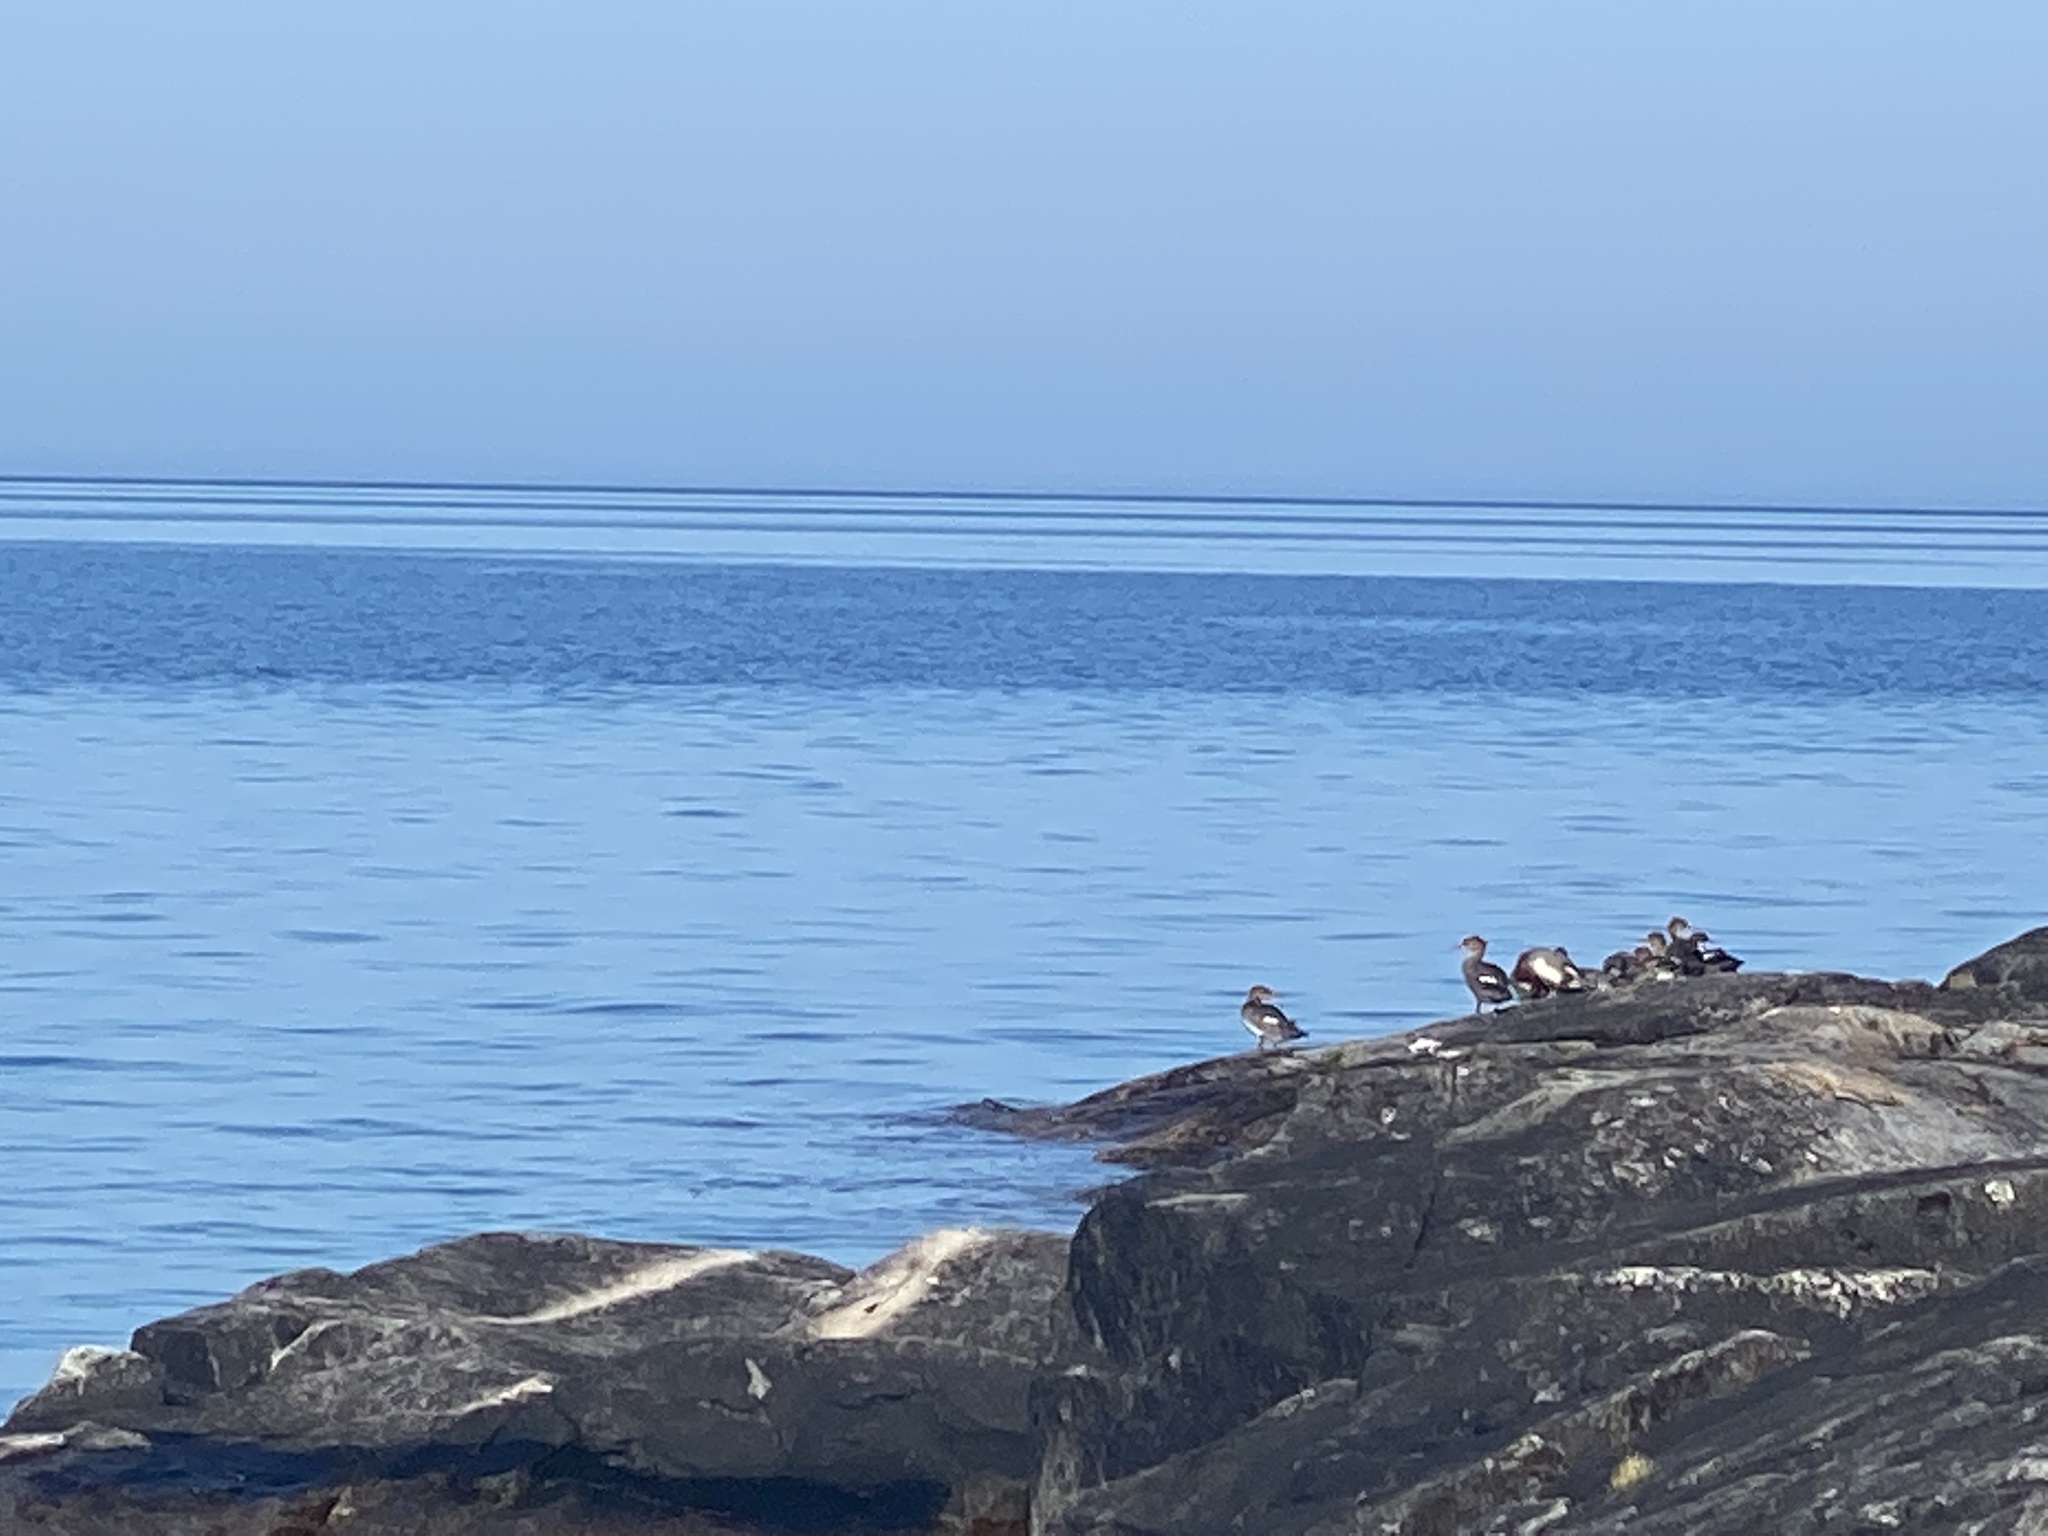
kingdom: Animalia
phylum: Chordata
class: Aves
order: Anseriformes
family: Anatidae
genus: Mergus
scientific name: Mergus merganser
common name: Common merganser
